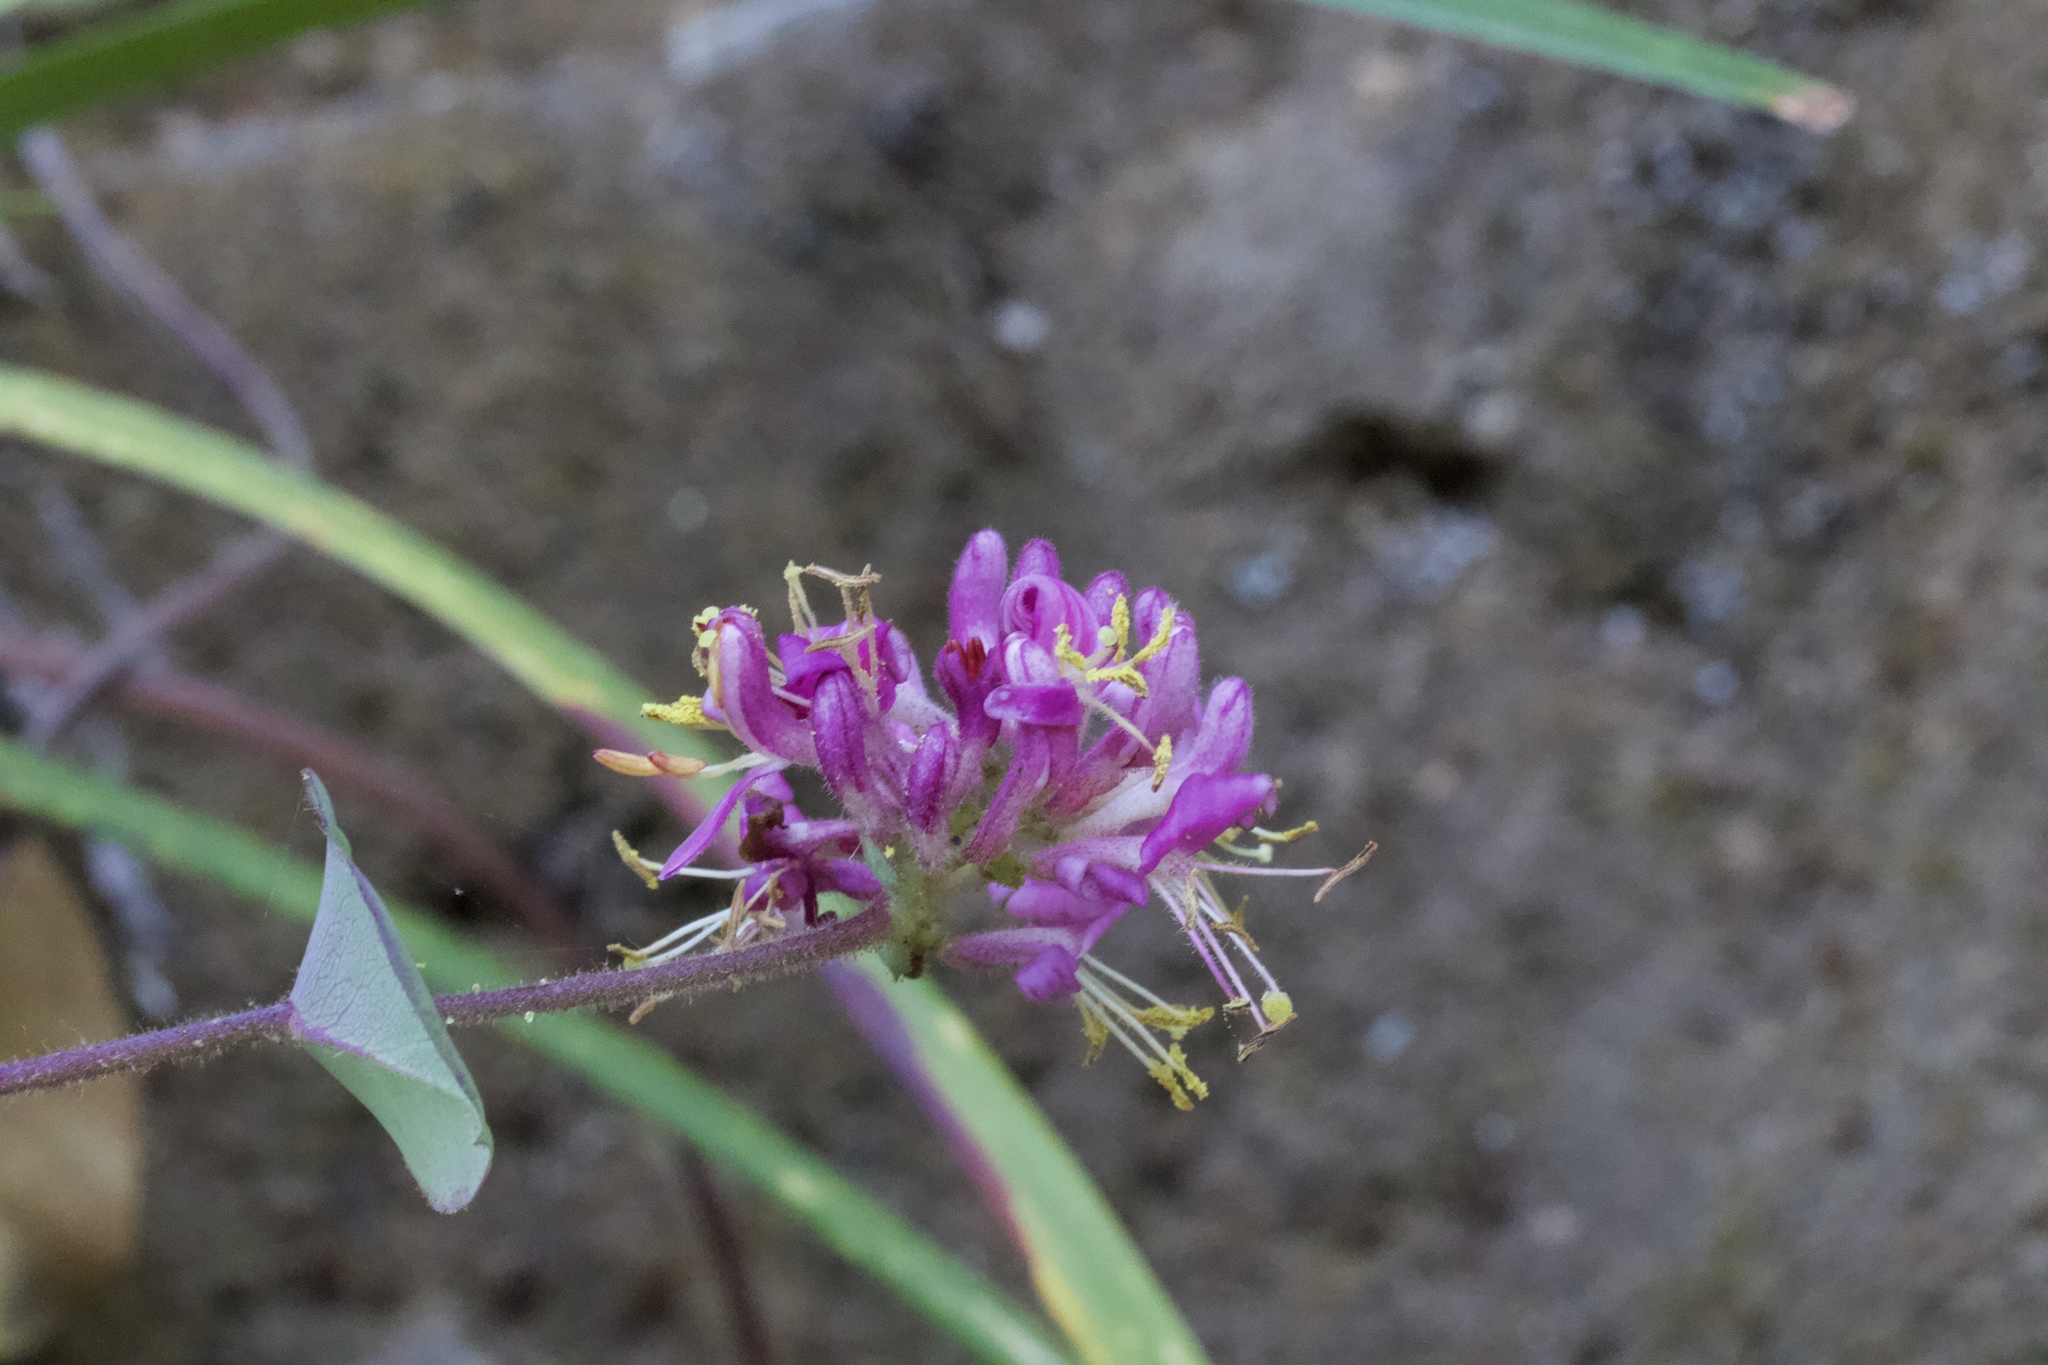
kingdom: Plantae
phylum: Tracheophyta
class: Magnoliopsida
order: Dipsacales
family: Caprifoliaceae
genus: Lonicera
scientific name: Lonicera hispidula
